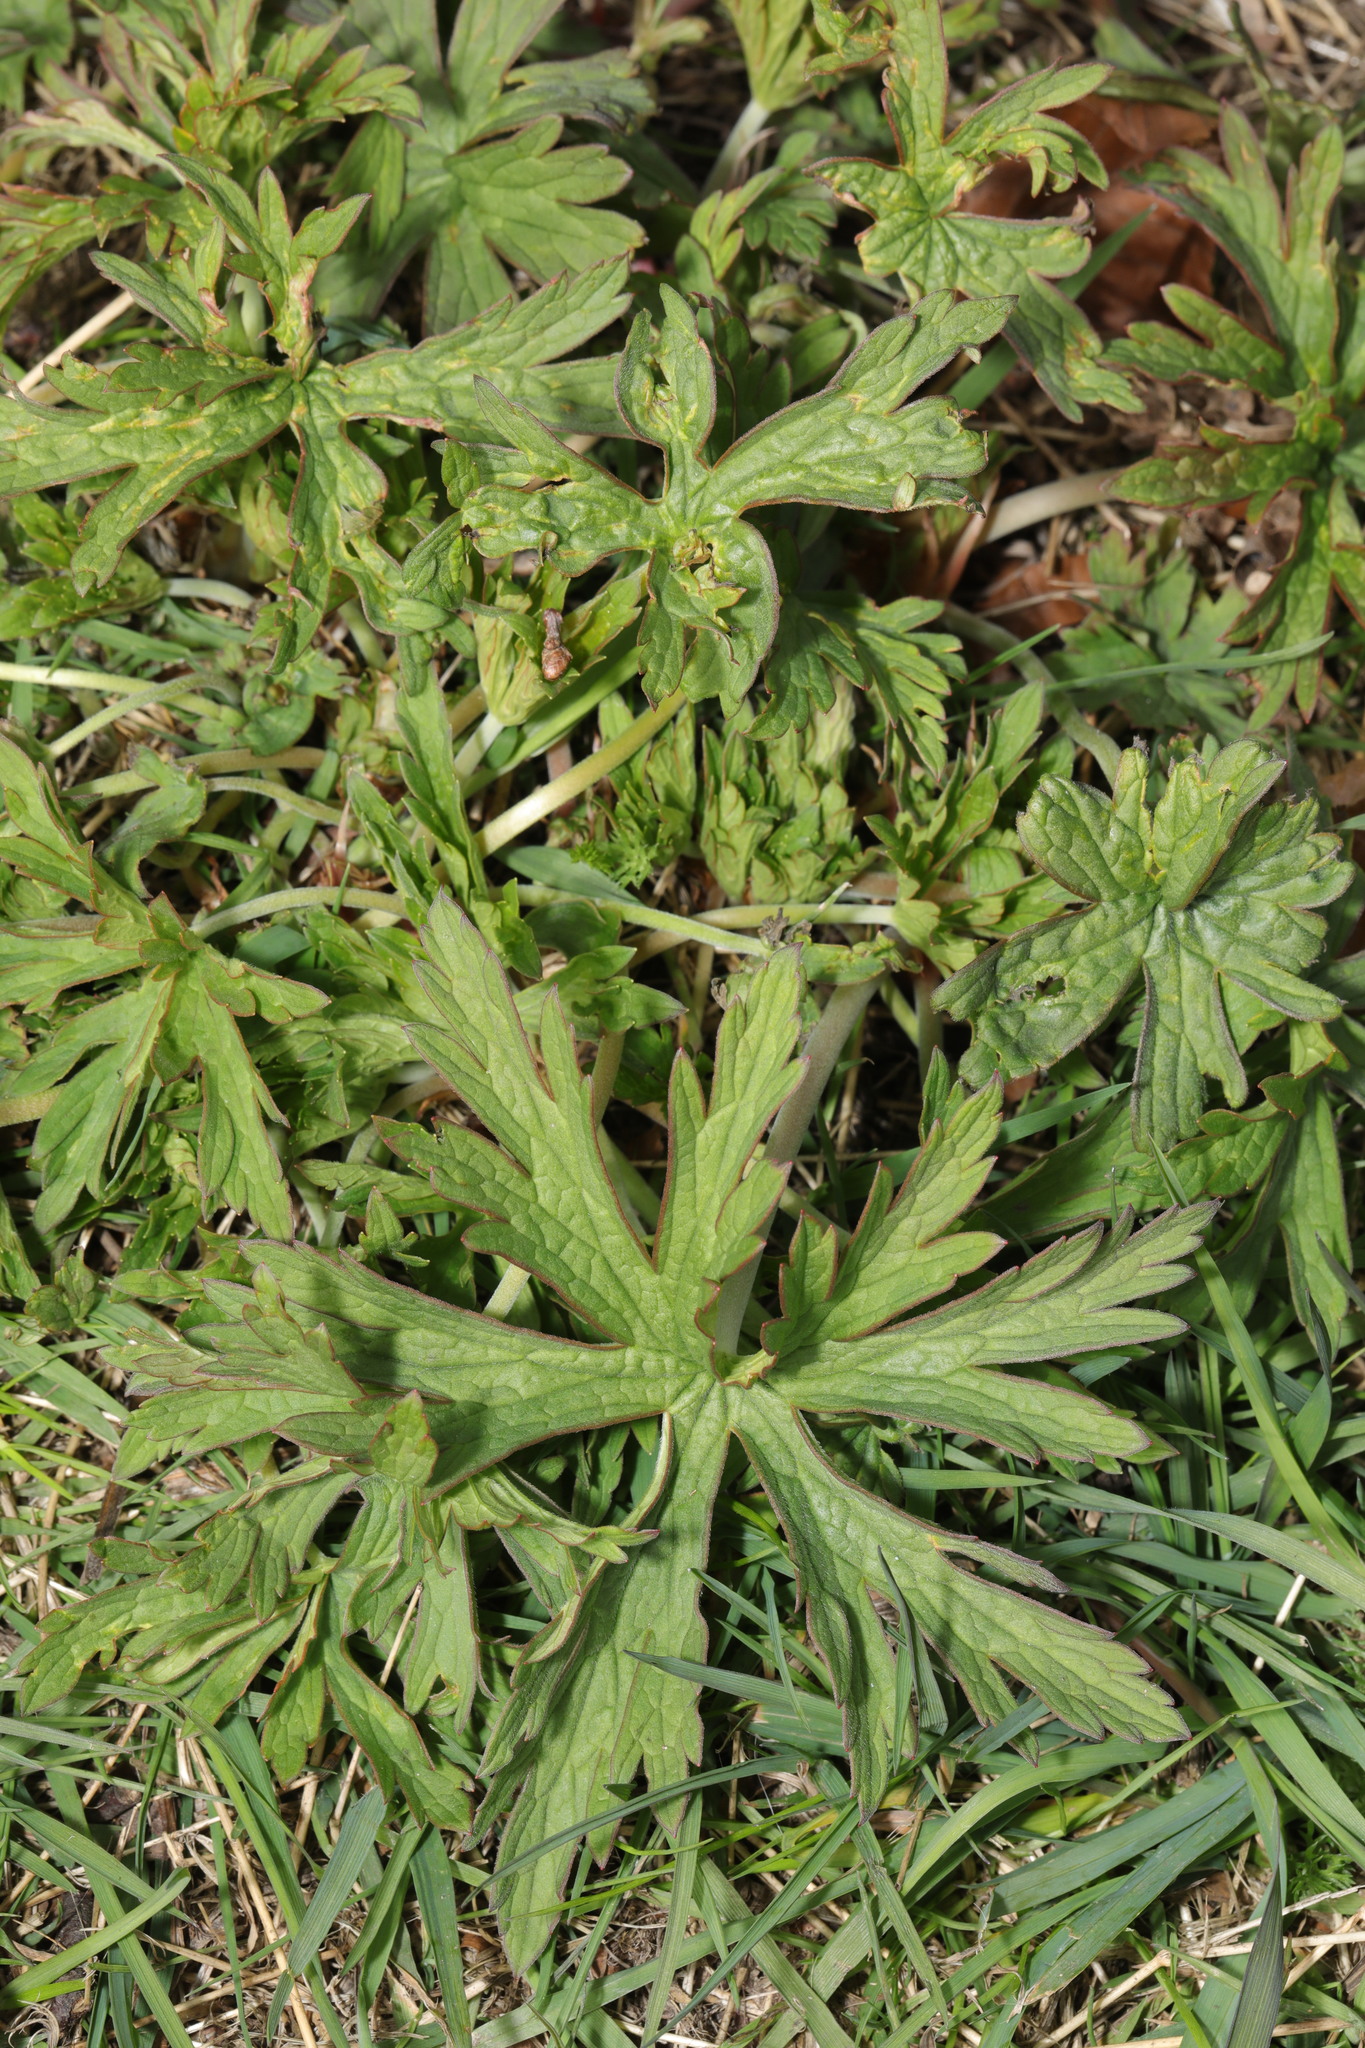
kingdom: Plantae
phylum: Tracheophyta
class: Magnoliopsida
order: Geraniales
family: Geraniaceae
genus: Geranium
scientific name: Geranium pratense
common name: Meadow crane's-bill
